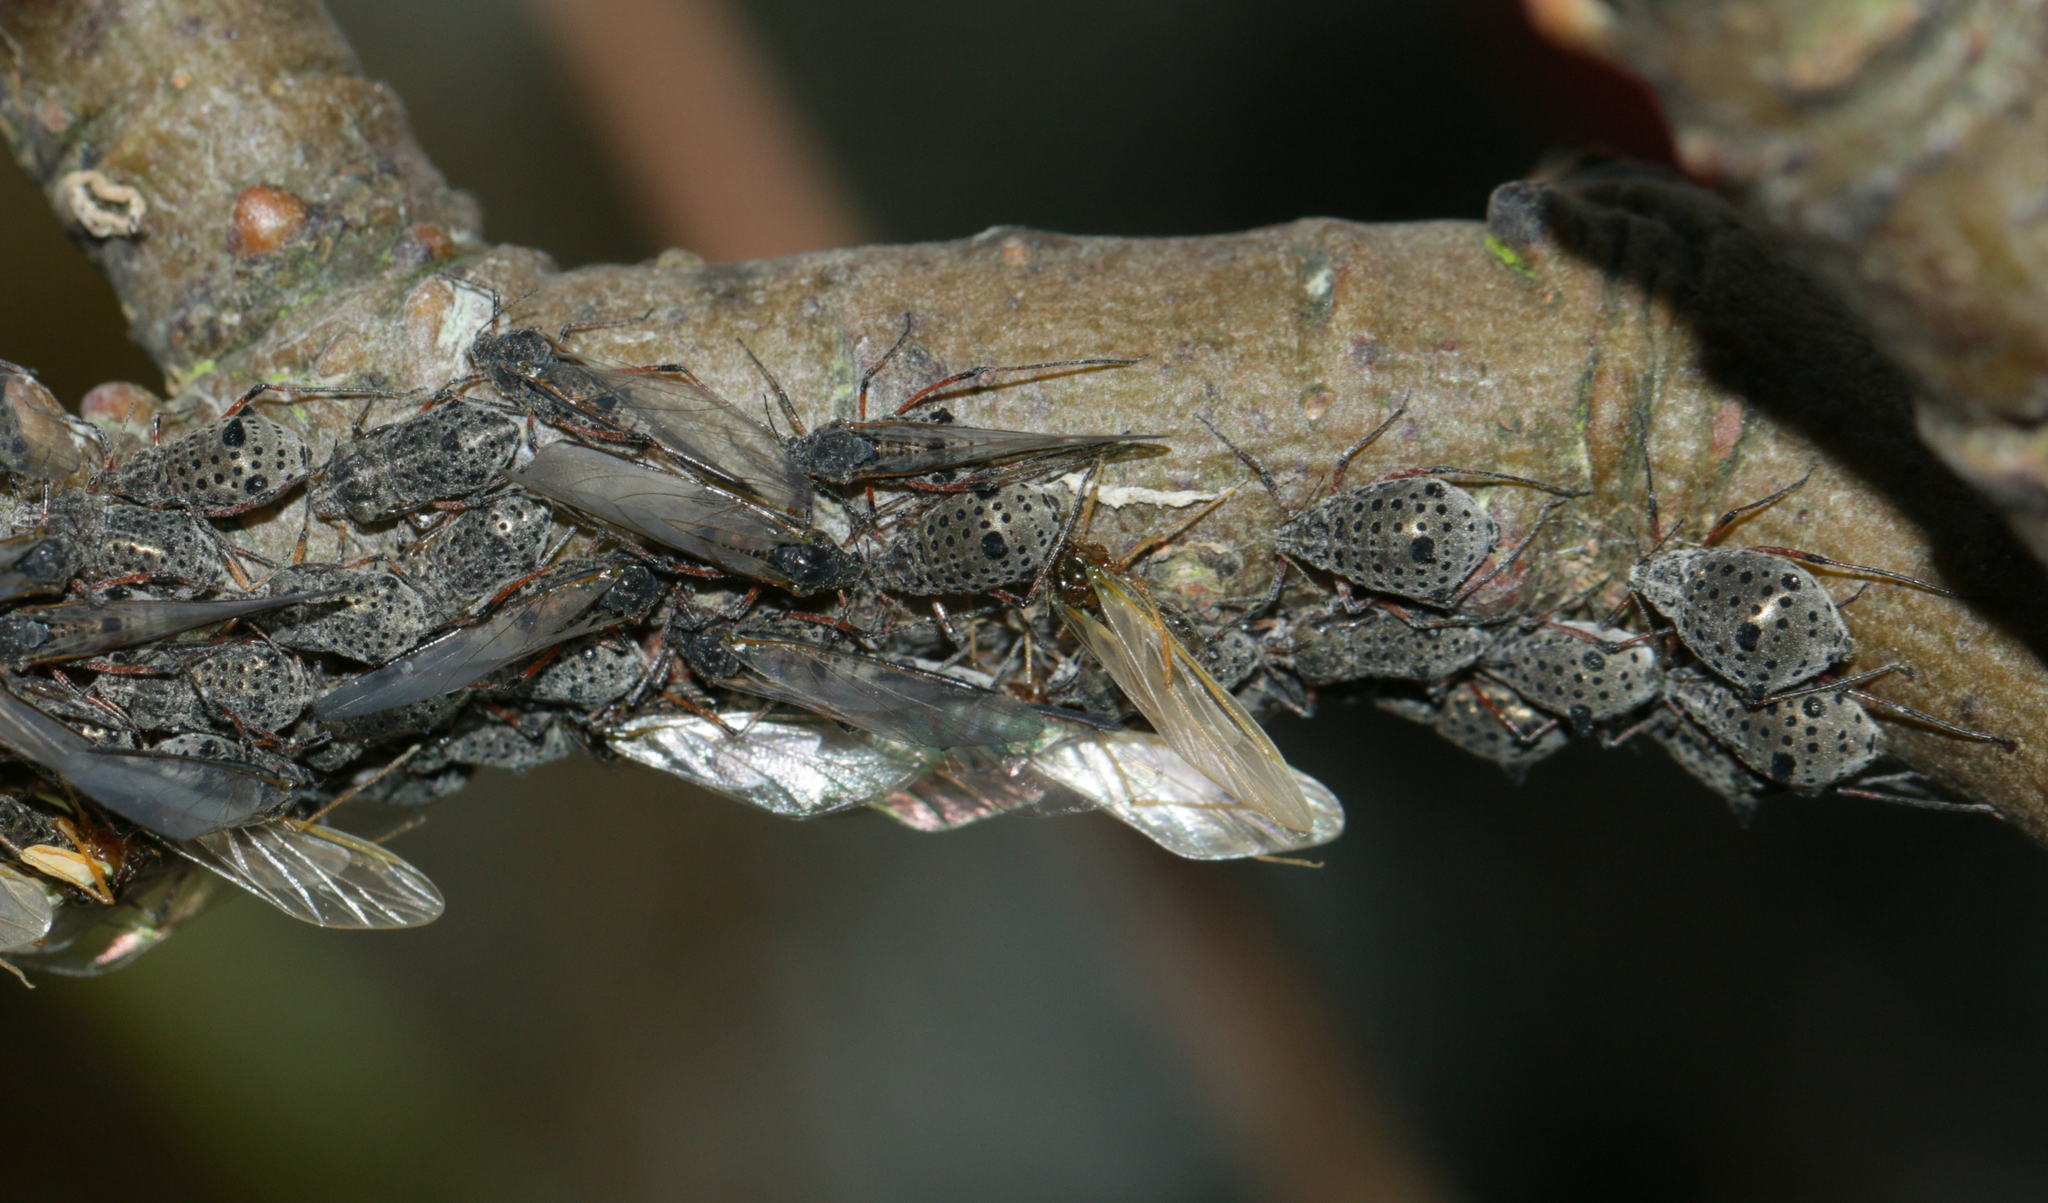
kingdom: Animalia
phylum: Arthropoda
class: Insecta
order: Hemiptera
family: Aphididae
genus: Tuberolachnus
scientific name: Tuberolachnus salignus
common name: Giant willow aphid
